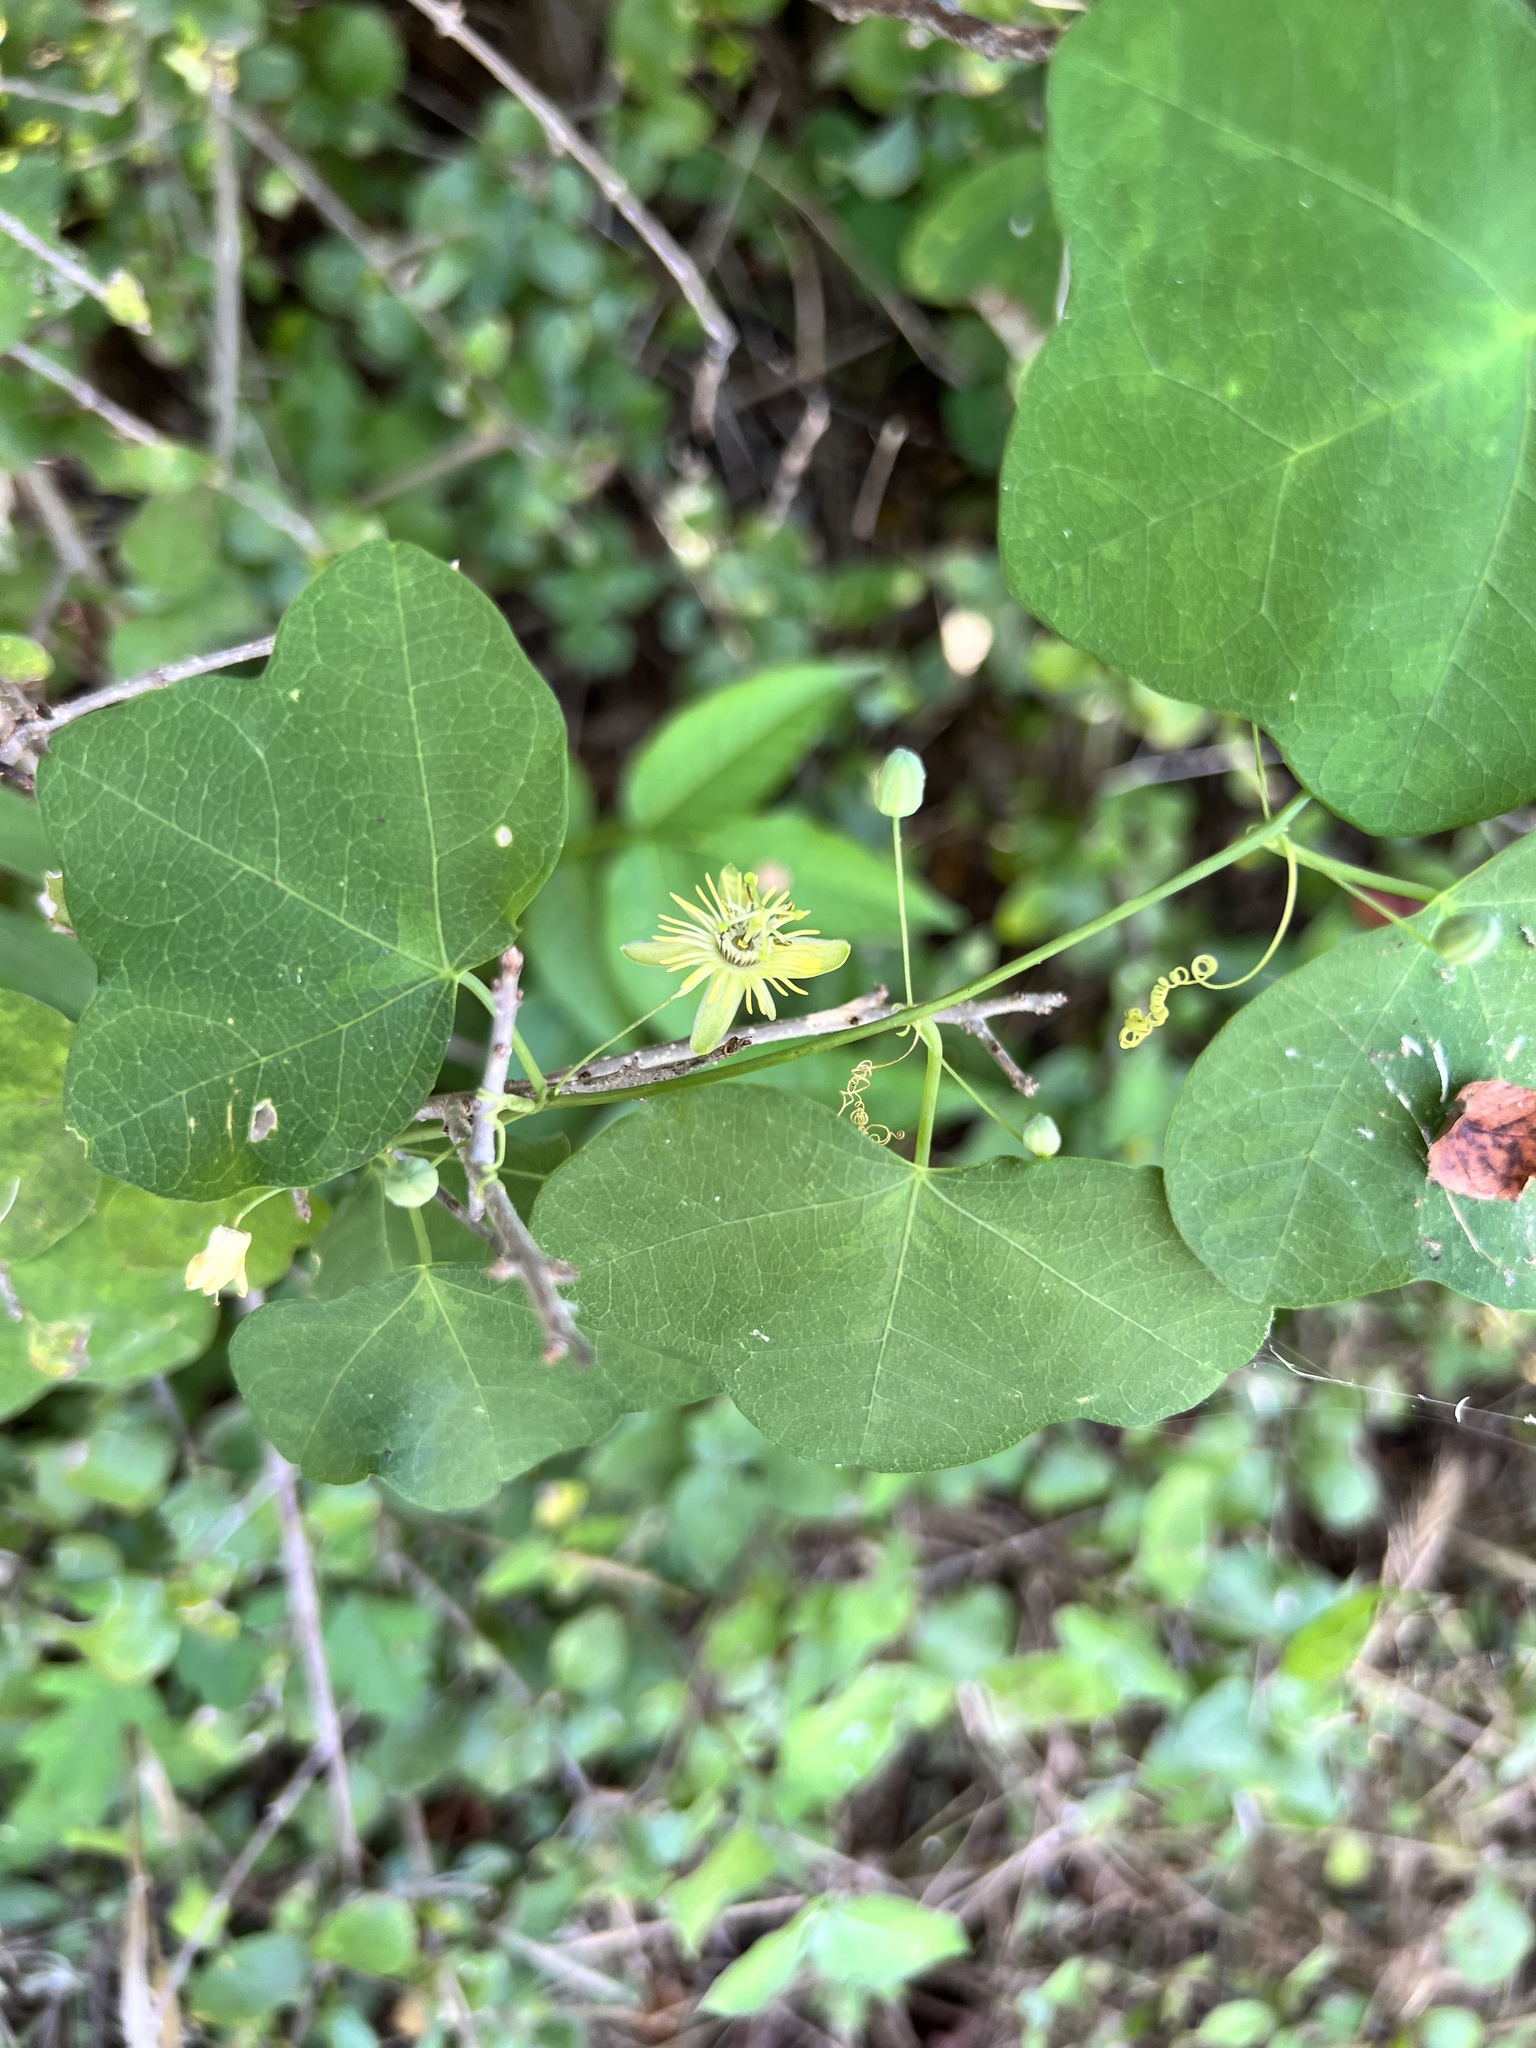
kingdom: Plantae
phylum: Tracheophyta
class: Magnoliopsida
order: Malpighiales
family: Passifloraceae
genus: Passiflora
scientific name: Passiflora lutea
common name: Yellow passionflower
